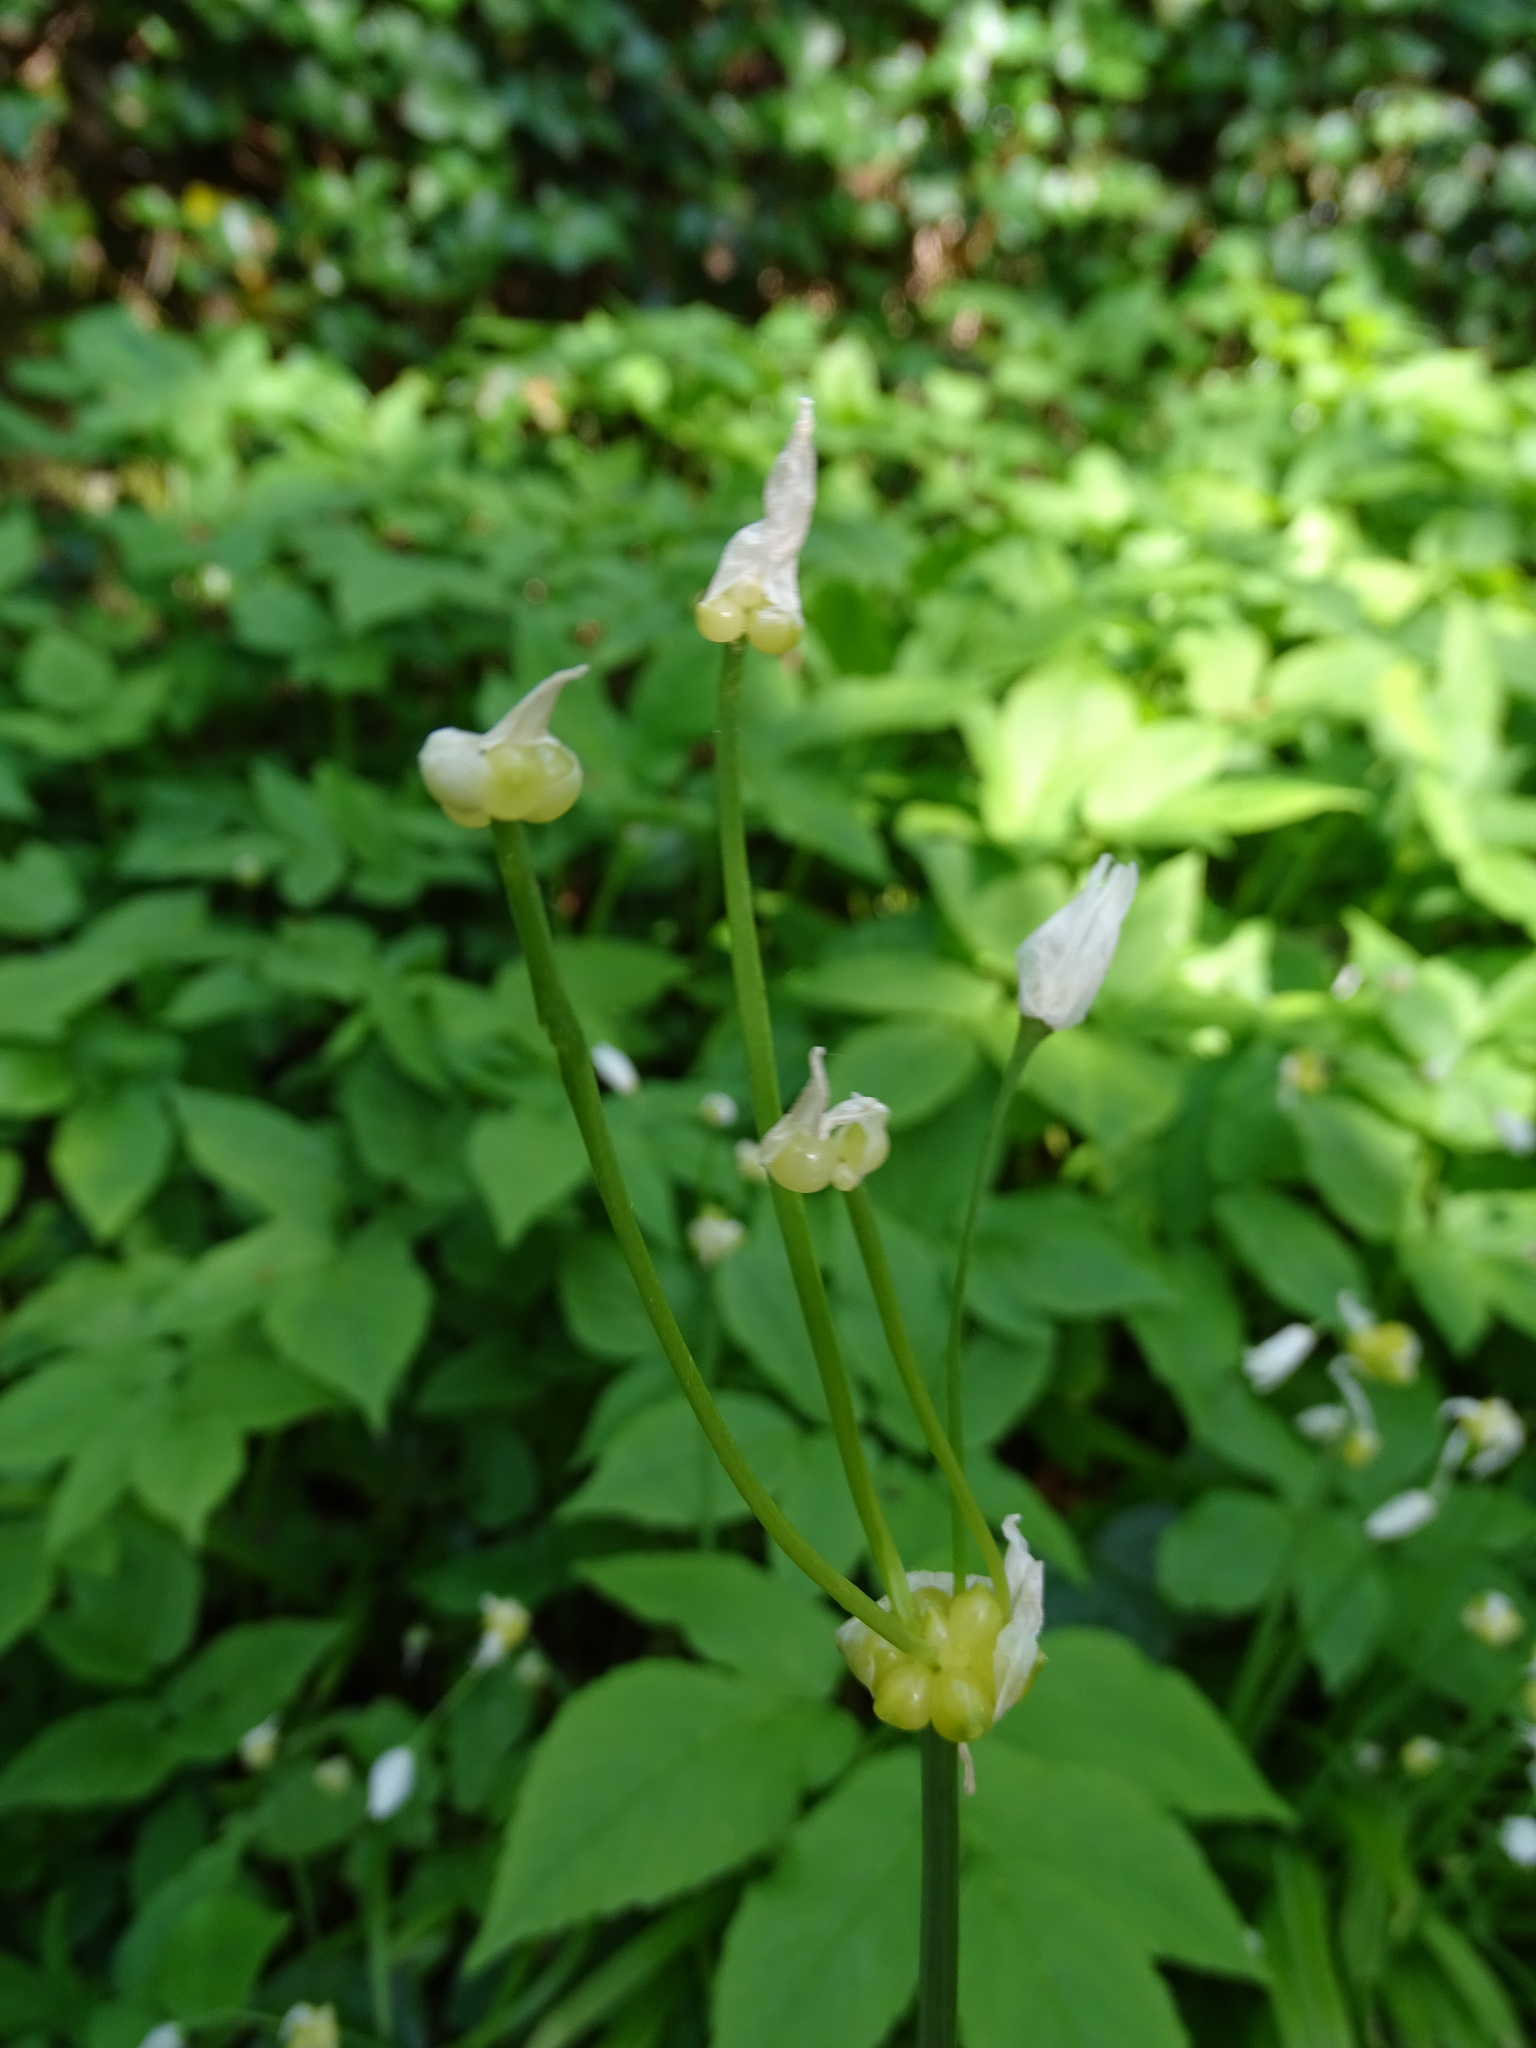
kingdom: Plantae
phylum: Tracheophyta
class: Liliopsida
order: Asparagales
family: Amaryllidaceae
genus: Allium
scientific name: Allium paradoxum
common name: Few-flowered garlic
